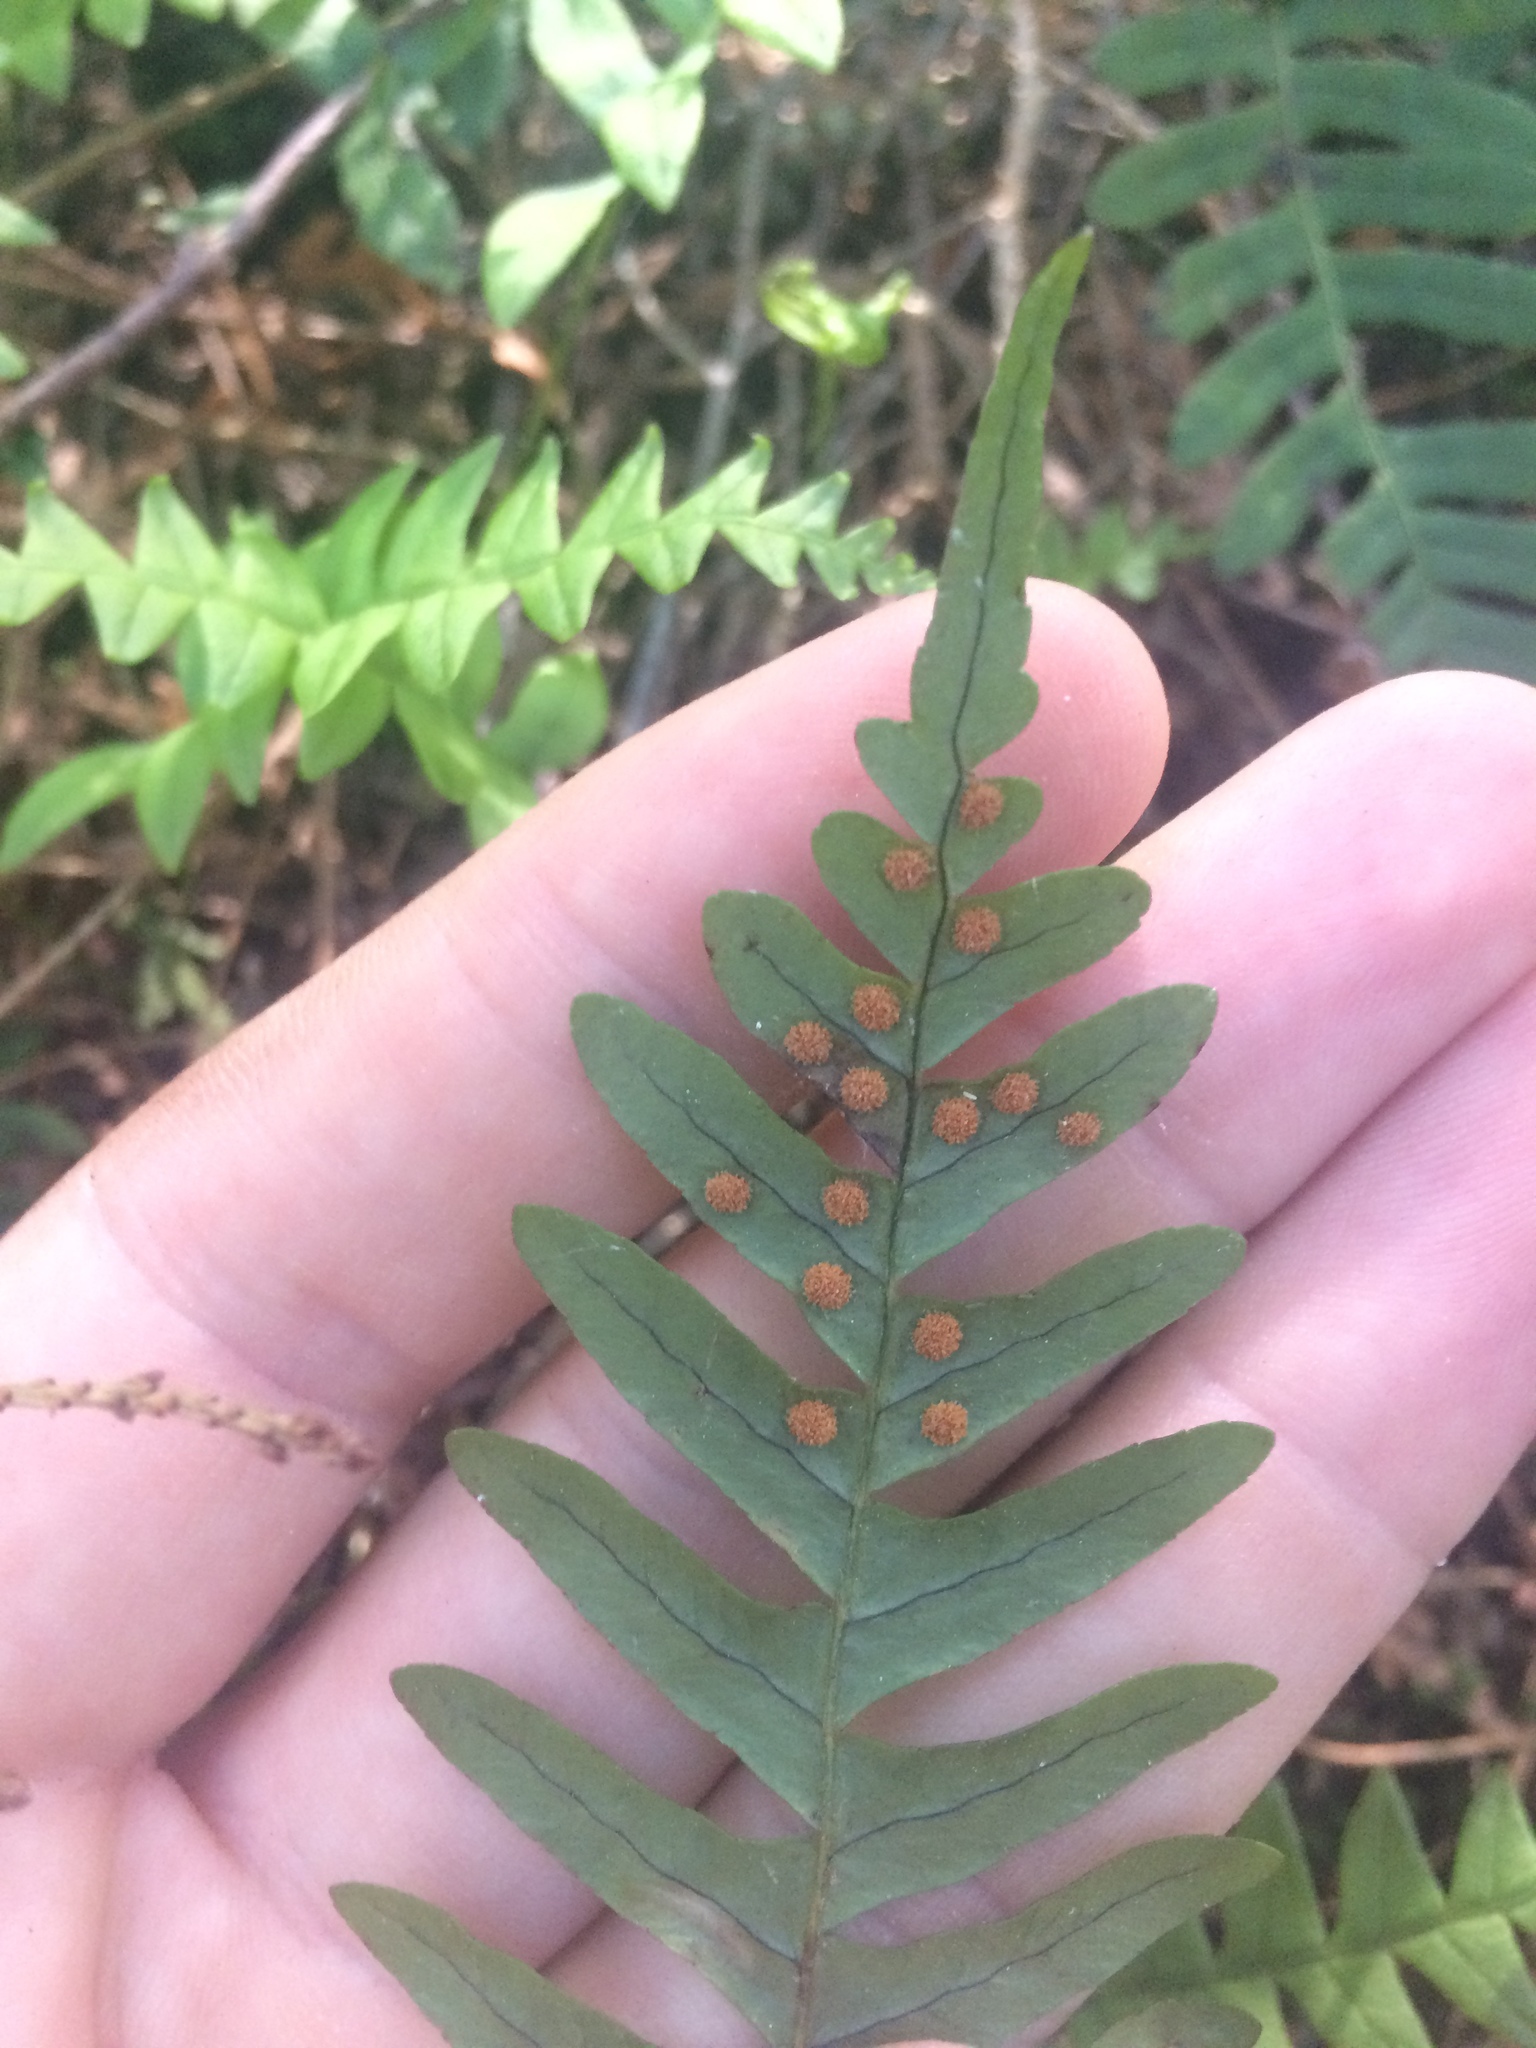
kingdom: Plantae
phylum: Tracheophyta
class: Polypodiopsida
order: Polypodiales
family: Polypodiaceae
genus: Polypodium
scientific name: Polypodium virginianum
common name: American wall fern
